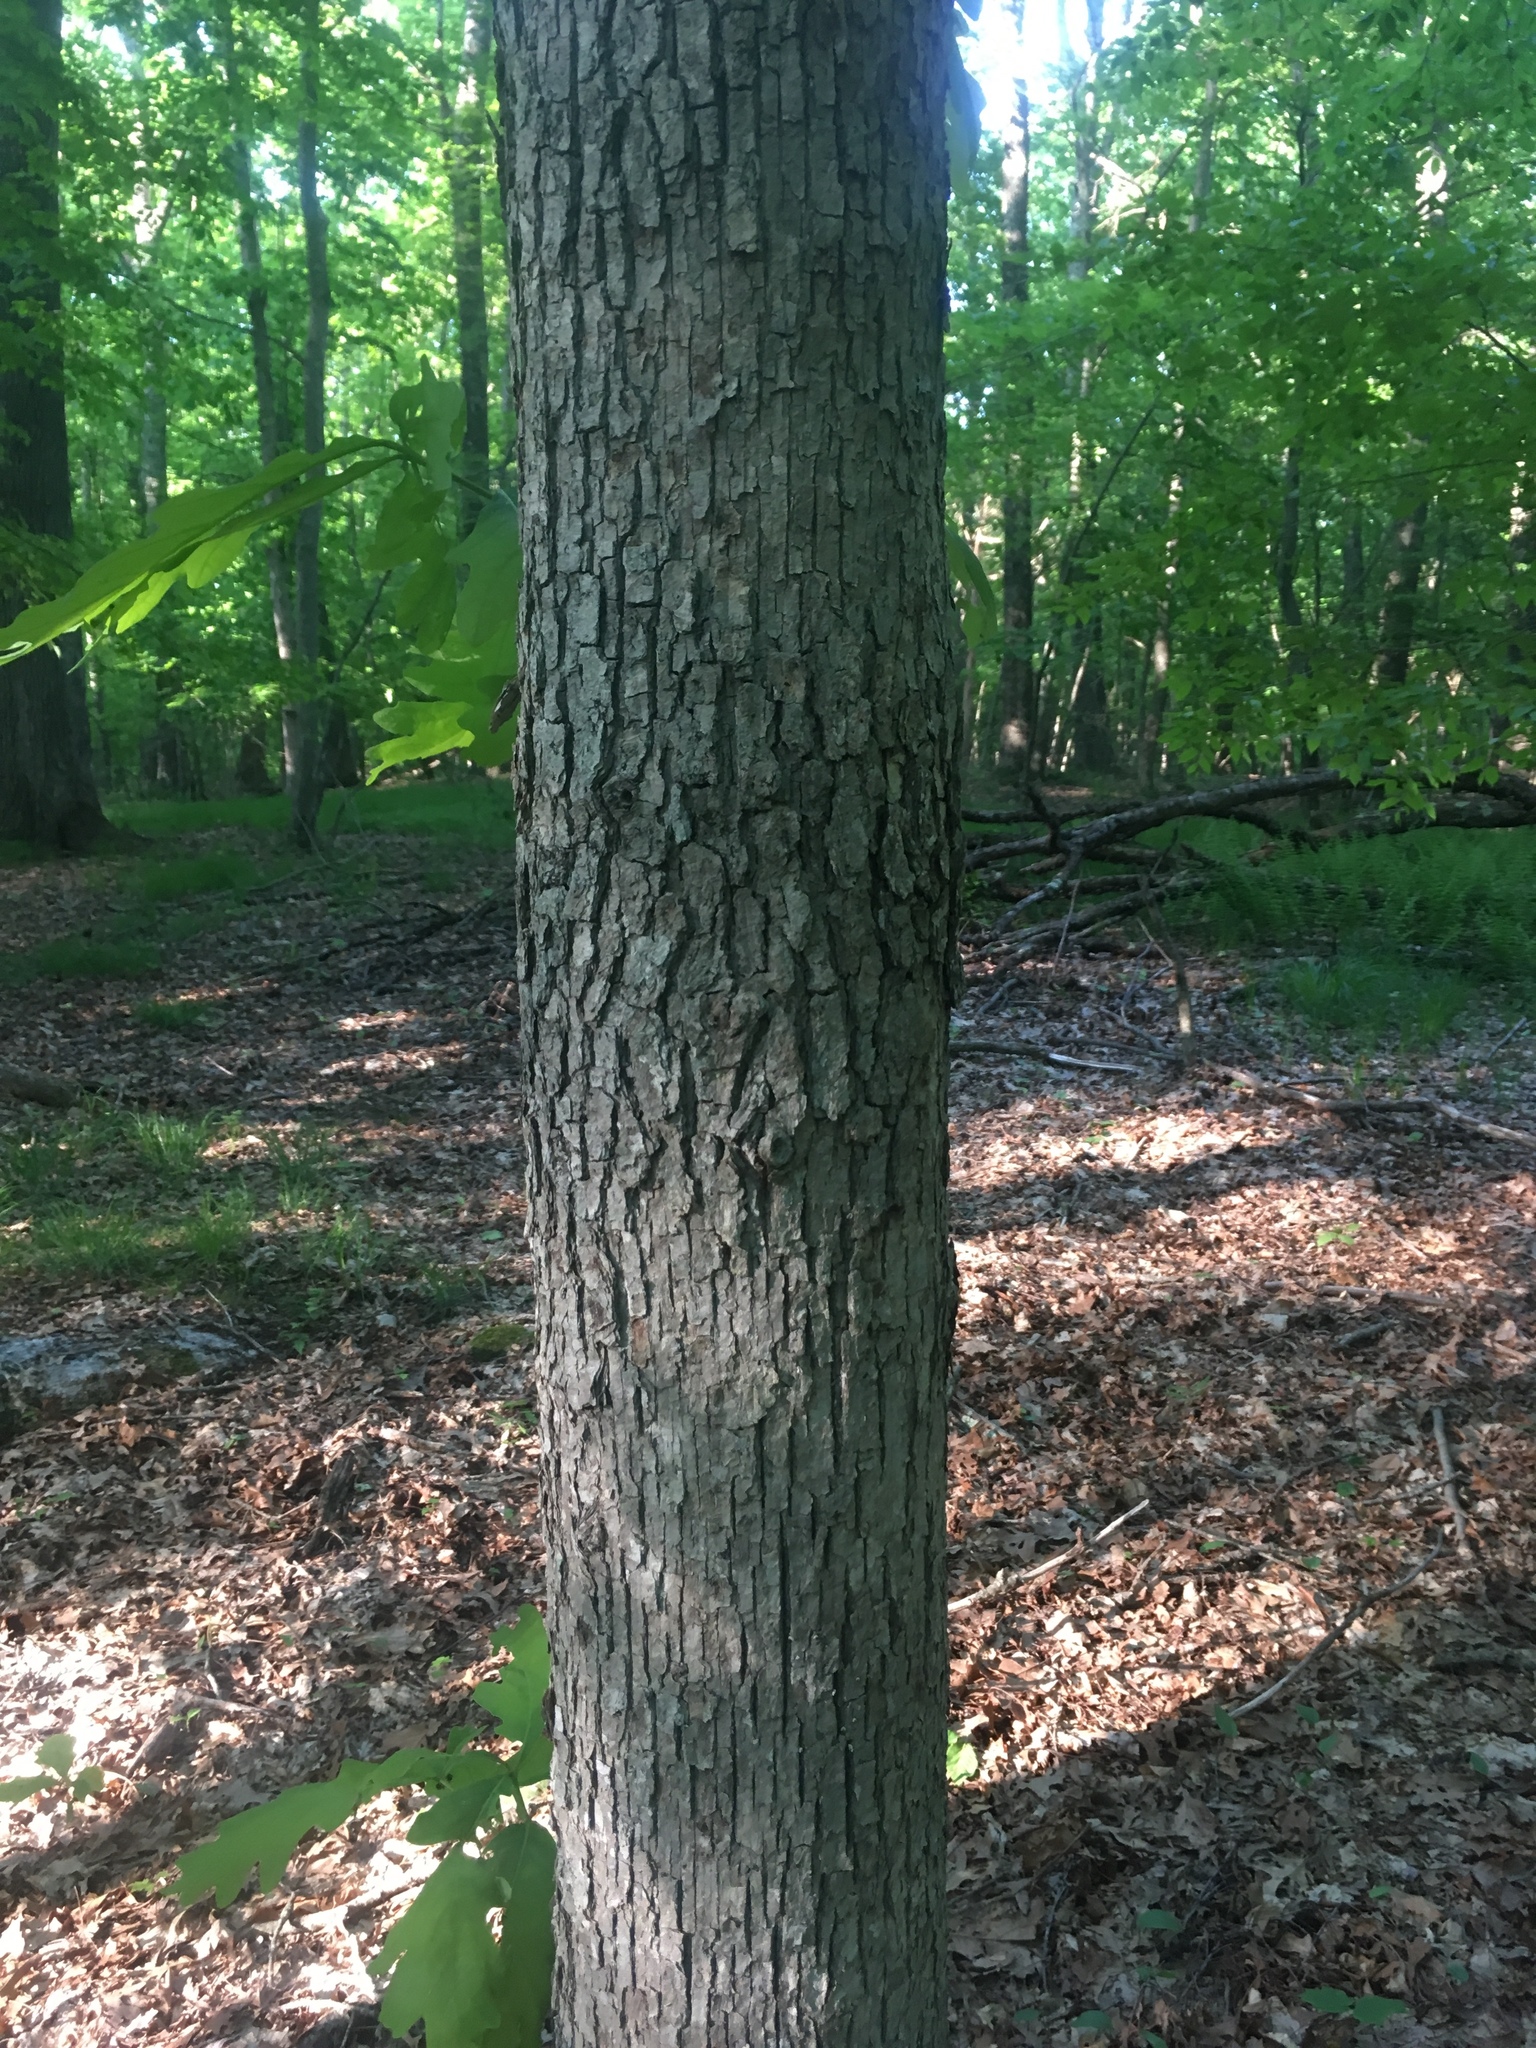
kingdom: Plantae
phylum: Tracheophyta
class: Magnoliopsida
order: Fagales
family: Fagaceae
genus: Quercus
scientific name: Quercus alba
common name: White oak
